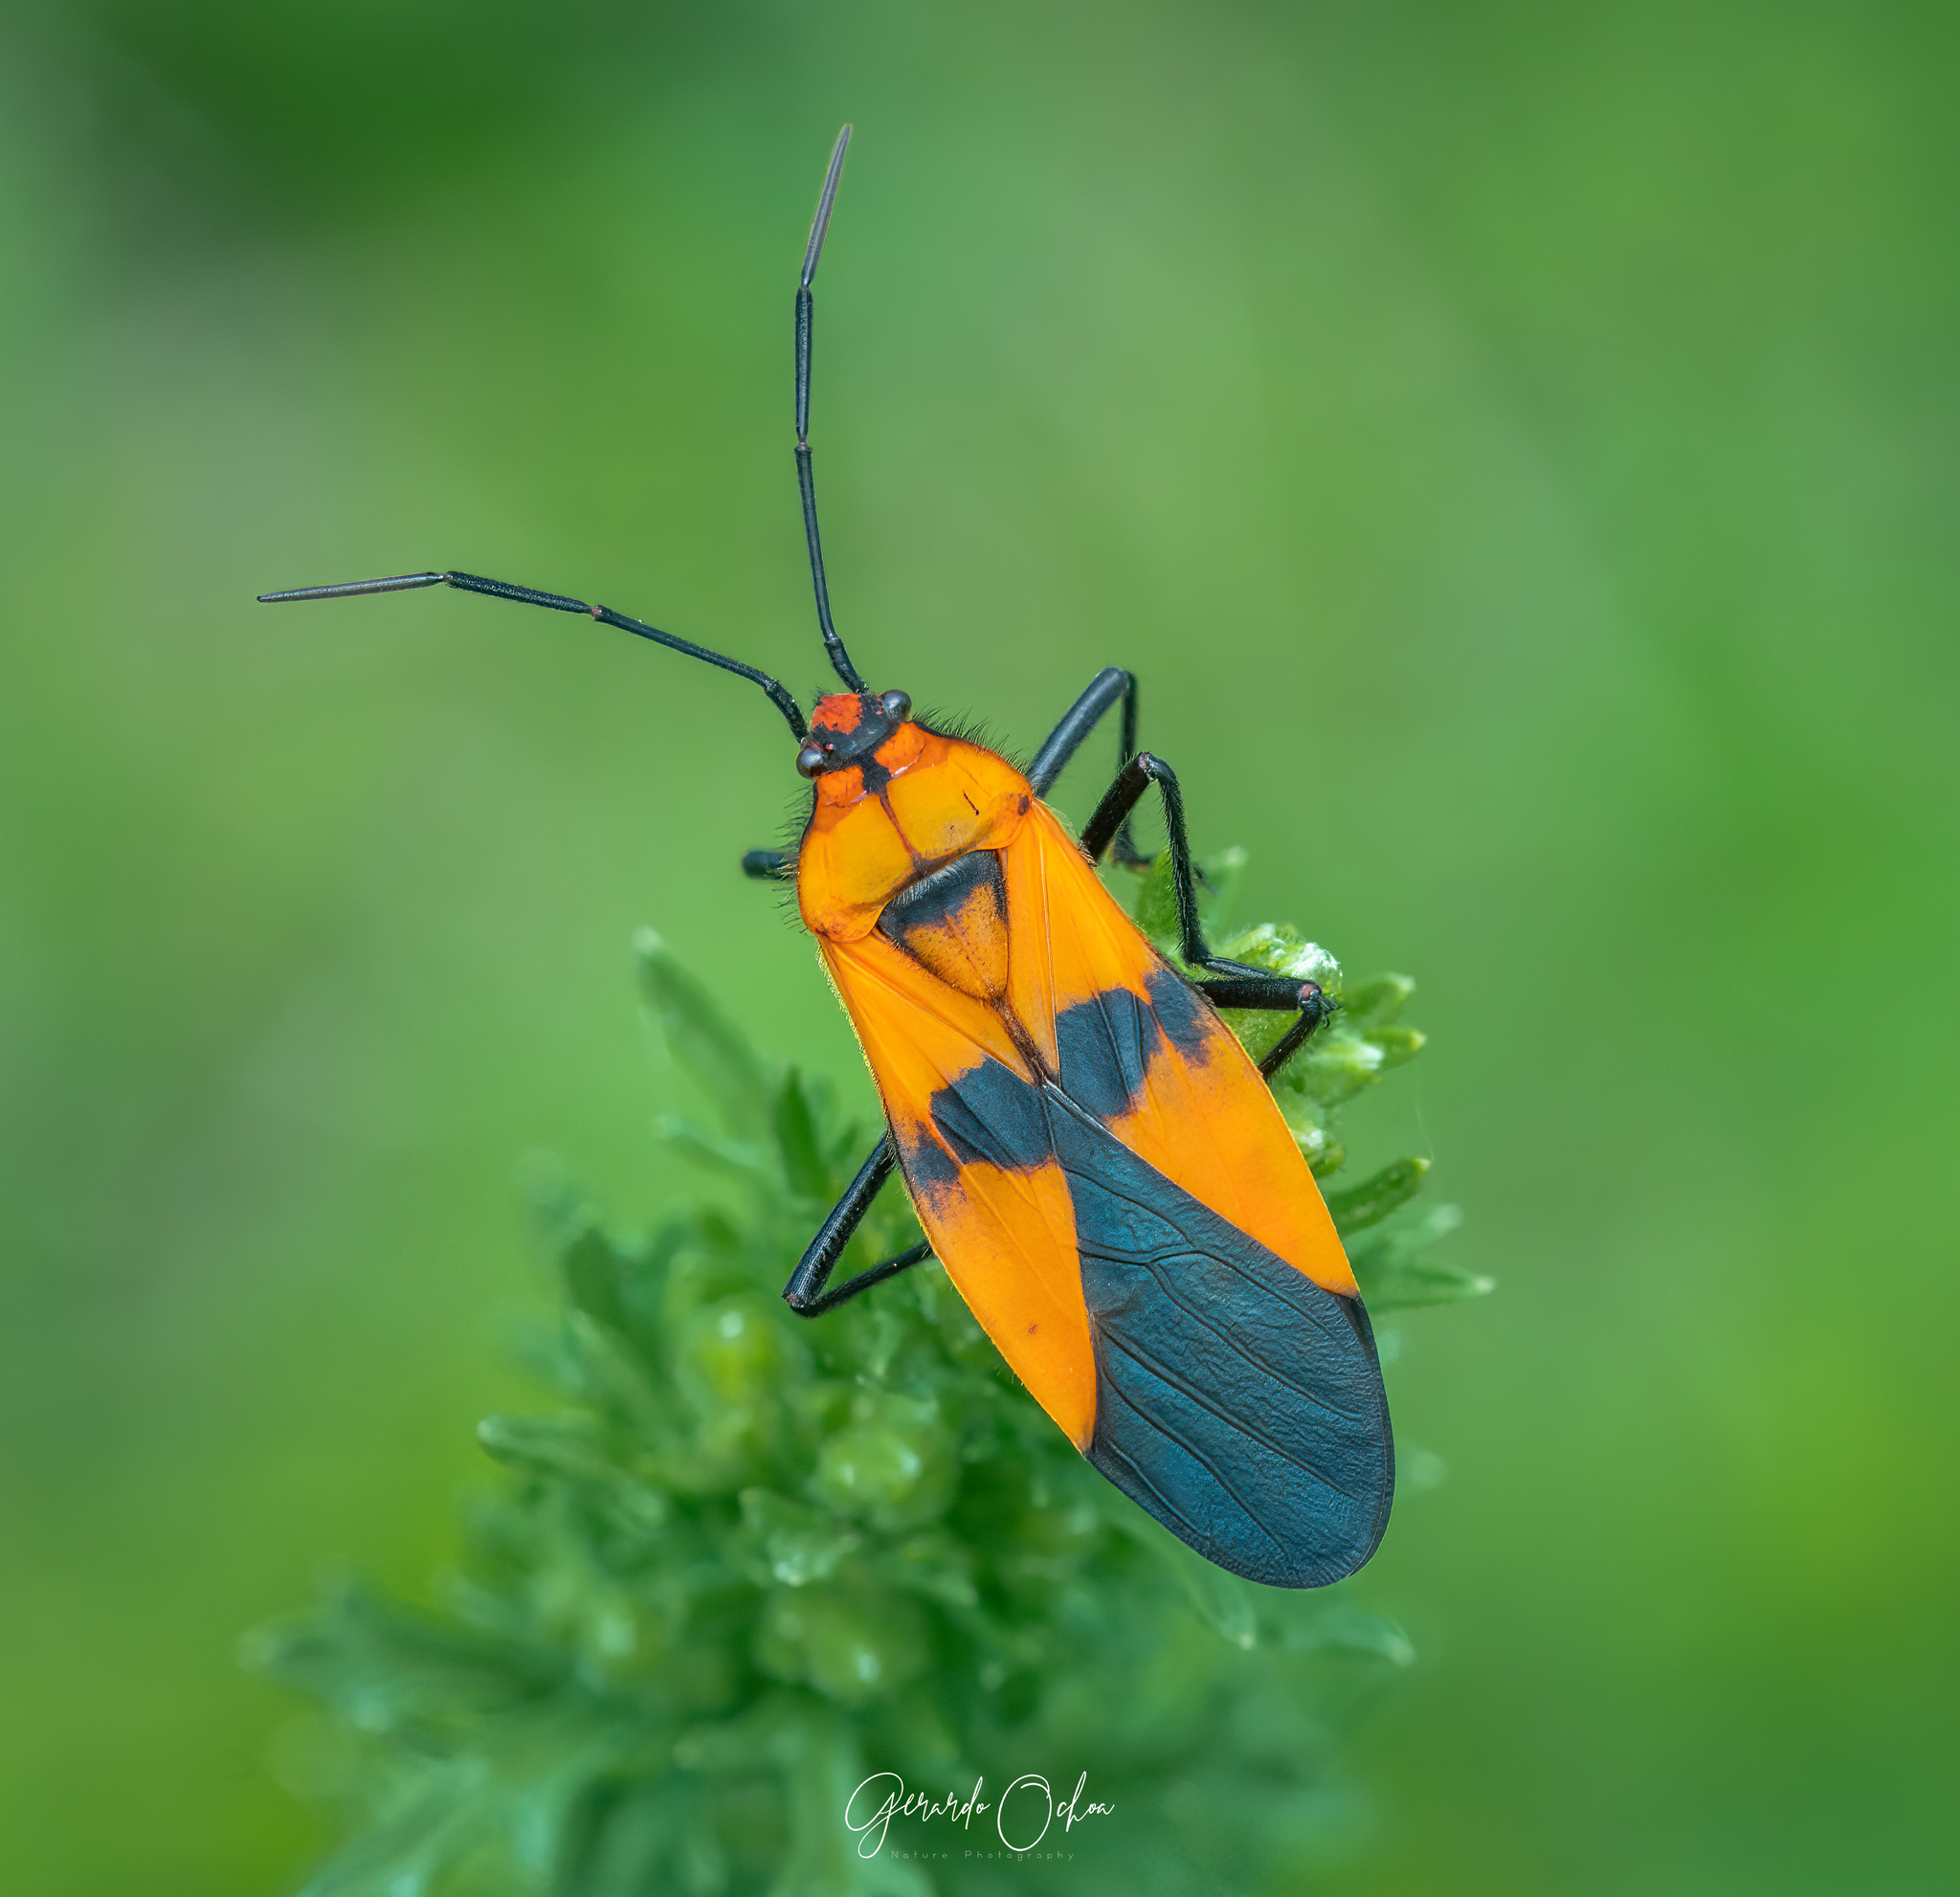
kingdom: Animalia
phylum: Arthropoda
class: Insecta
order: Hemiptera
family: Lygaeidae
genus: Oncopeltus
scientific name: Oncopeltus varicolor
